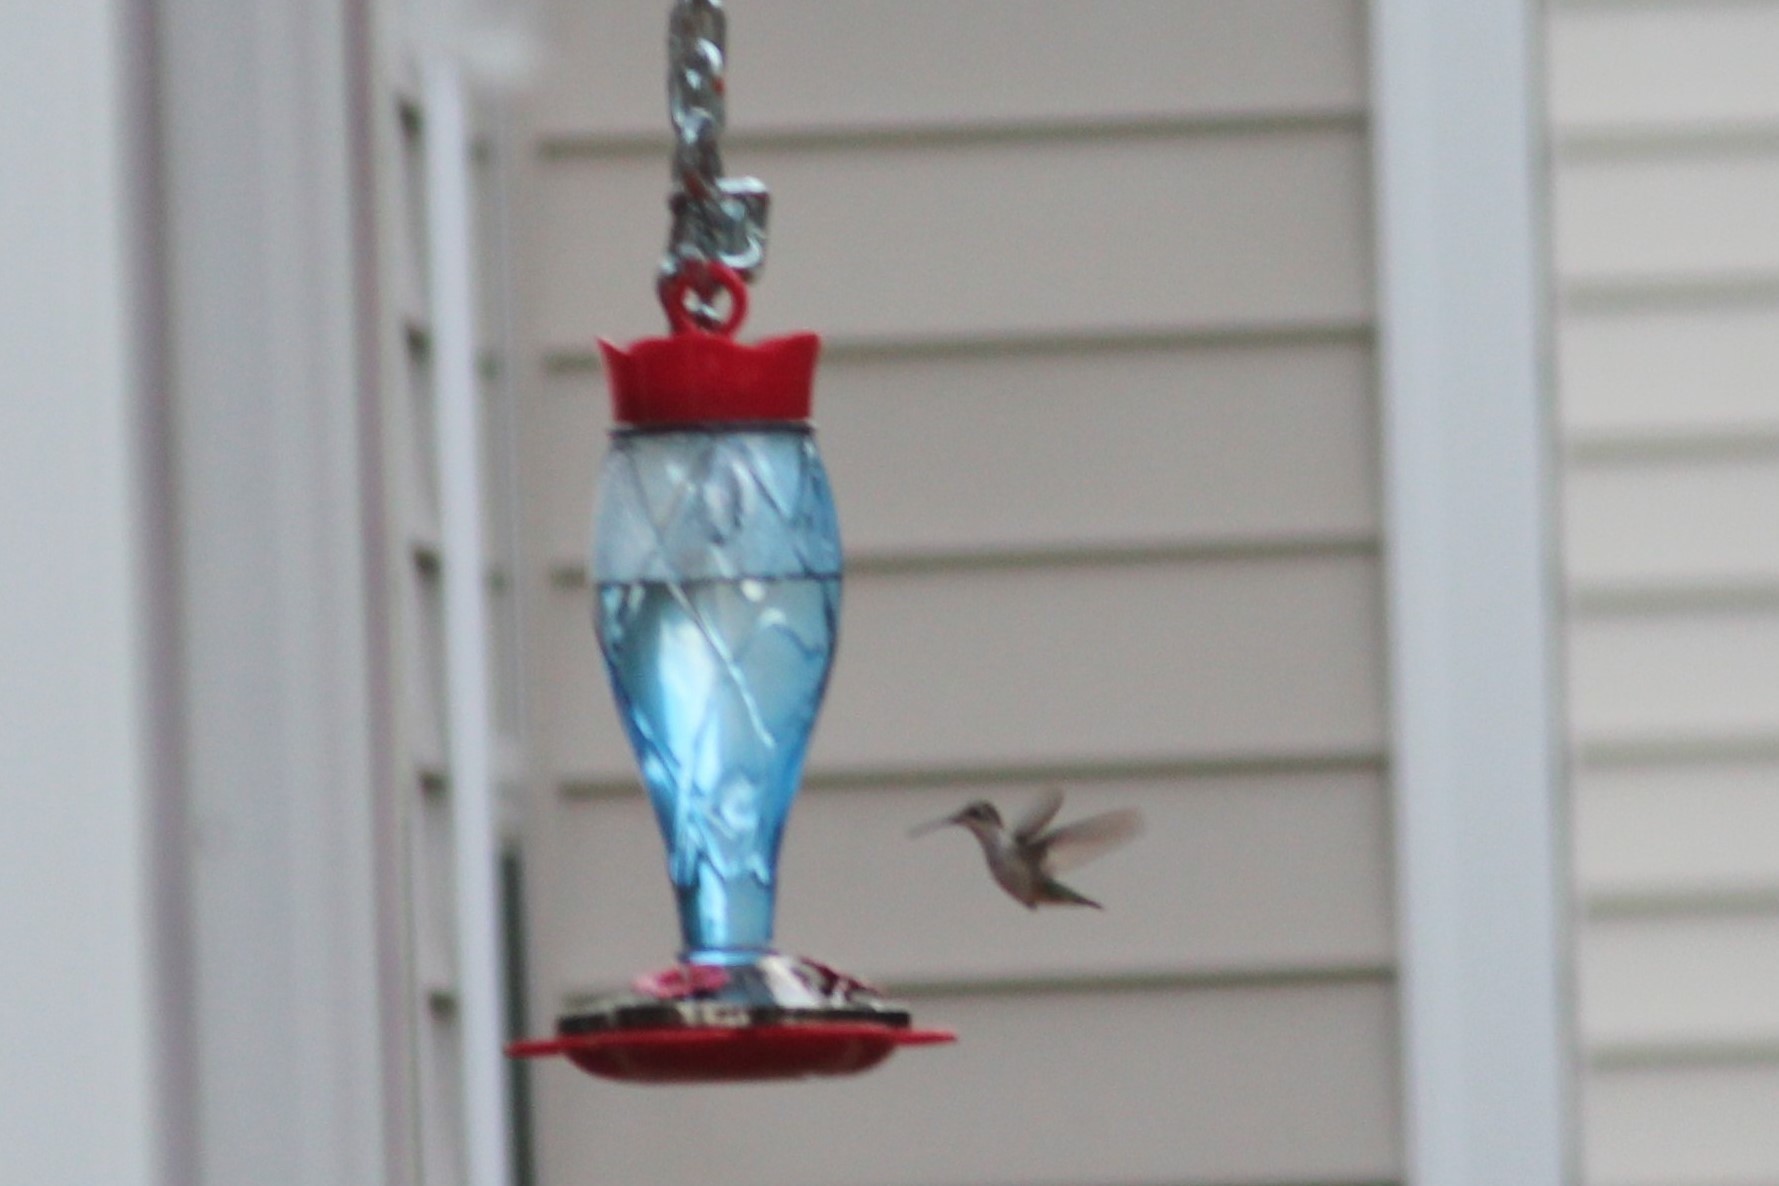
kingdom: Animalia
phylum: Chordata
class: Aves
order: Apodiformes
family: Trochilidae
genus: Archilochus
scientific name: Archilochus colubris
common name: Ruby-throated hummingbird
